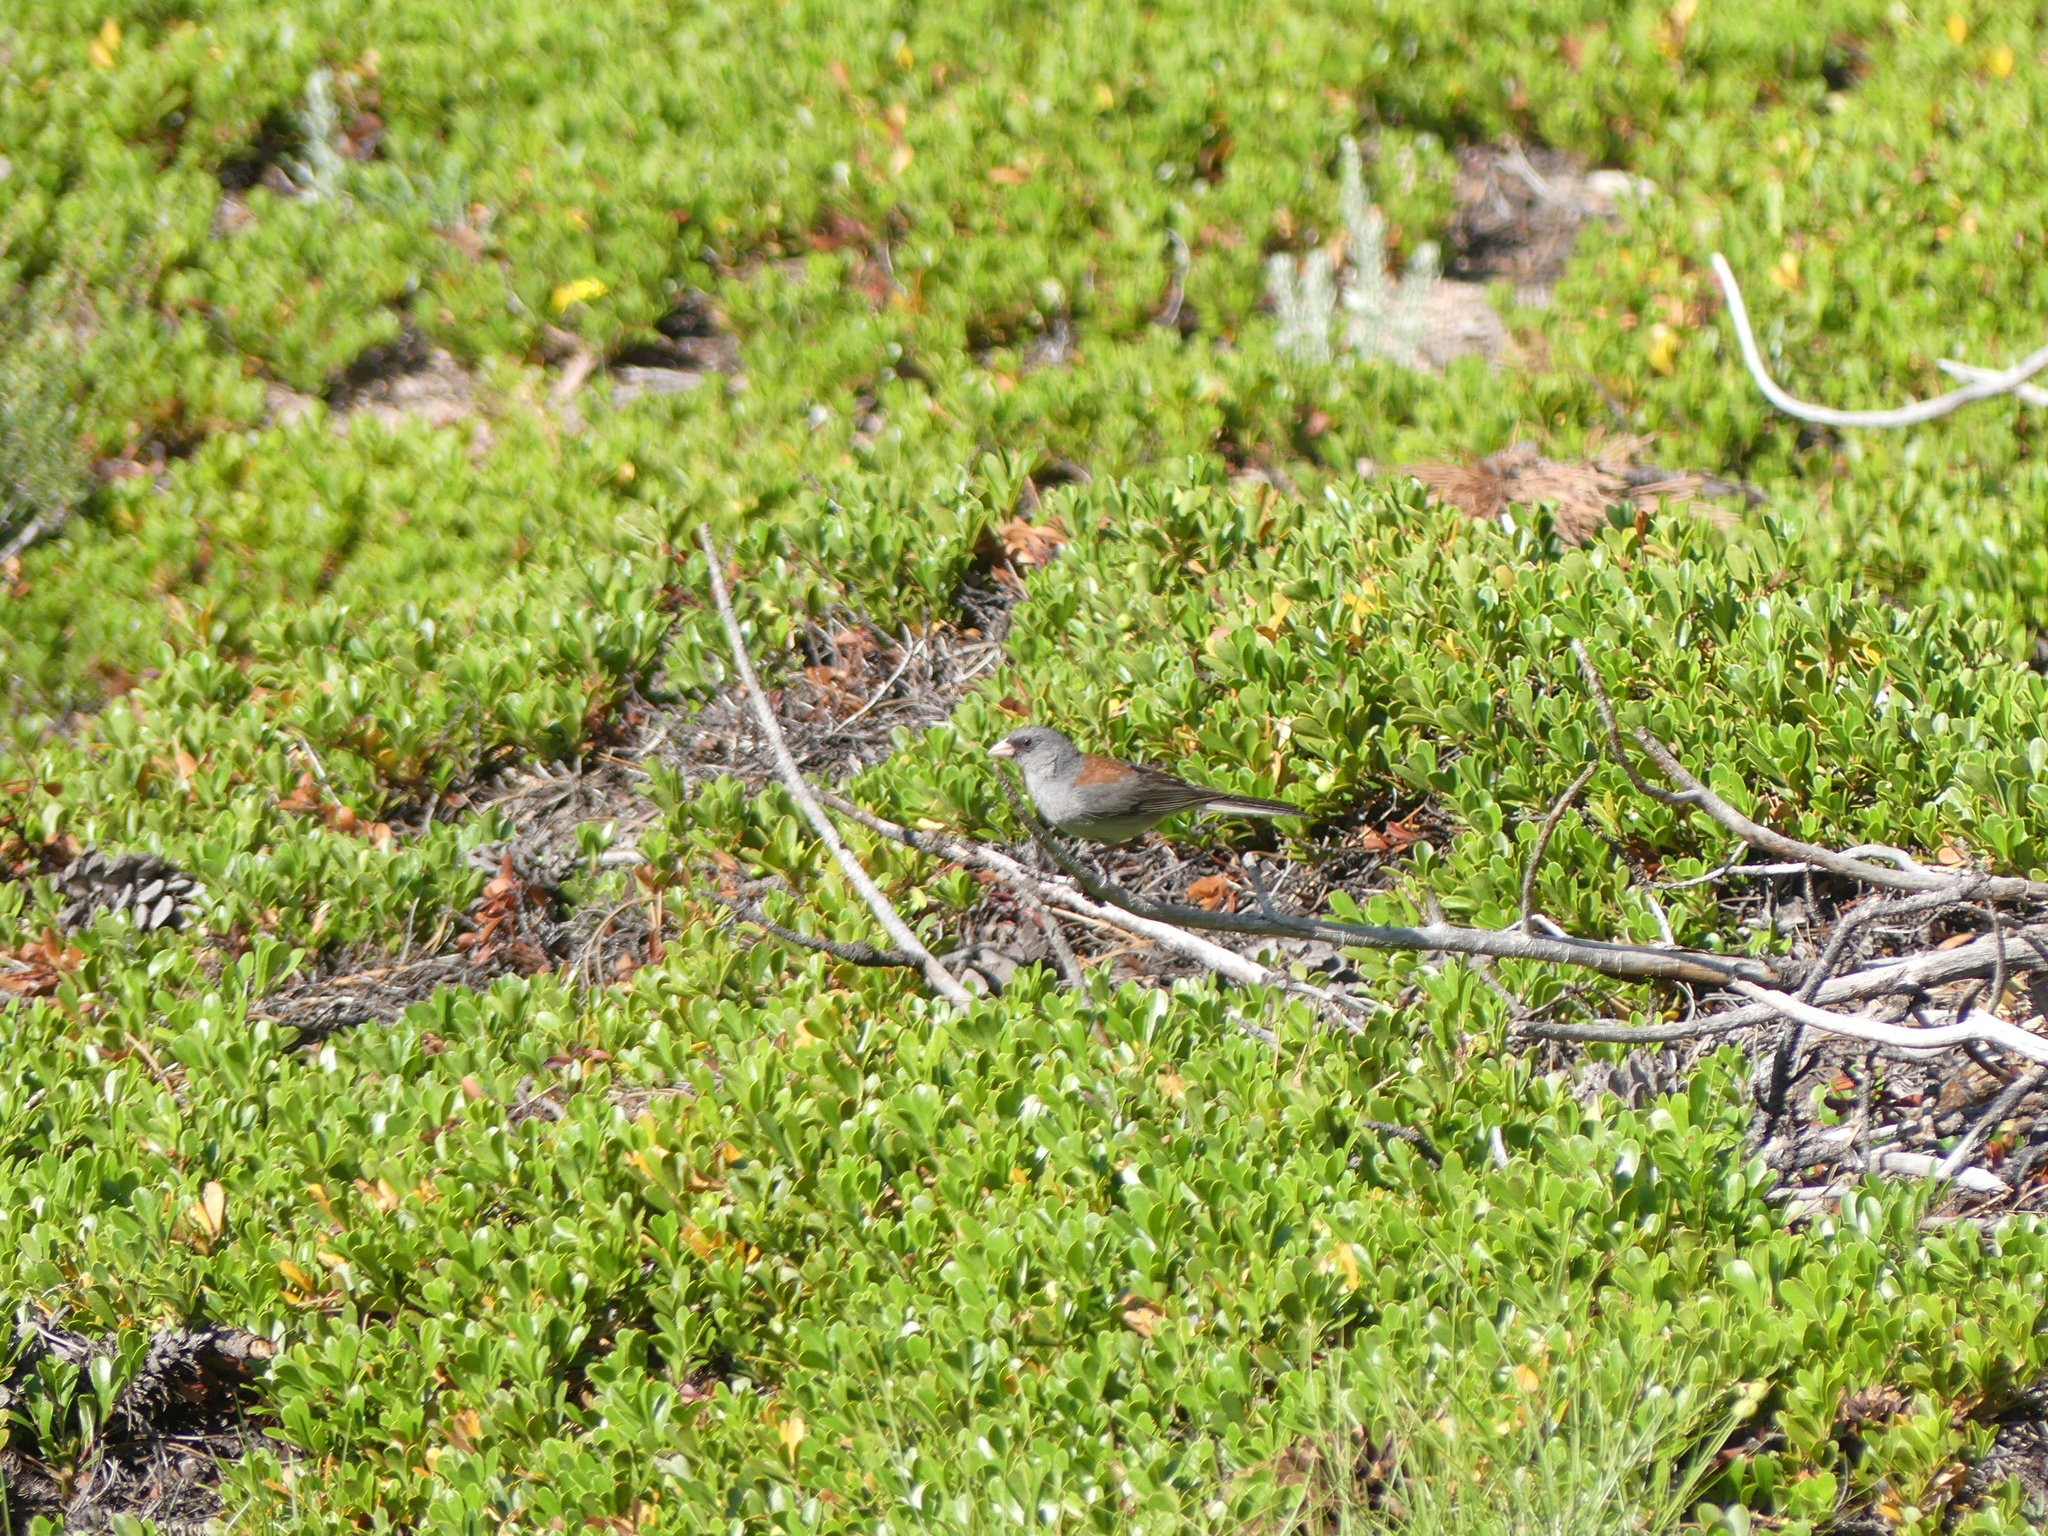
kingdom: Animalia
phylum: Chordata
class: Aves
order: Passeriformes
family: Passerellidae
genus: Junco
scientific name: Junco hyemalis
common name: Dark-eyed junco
